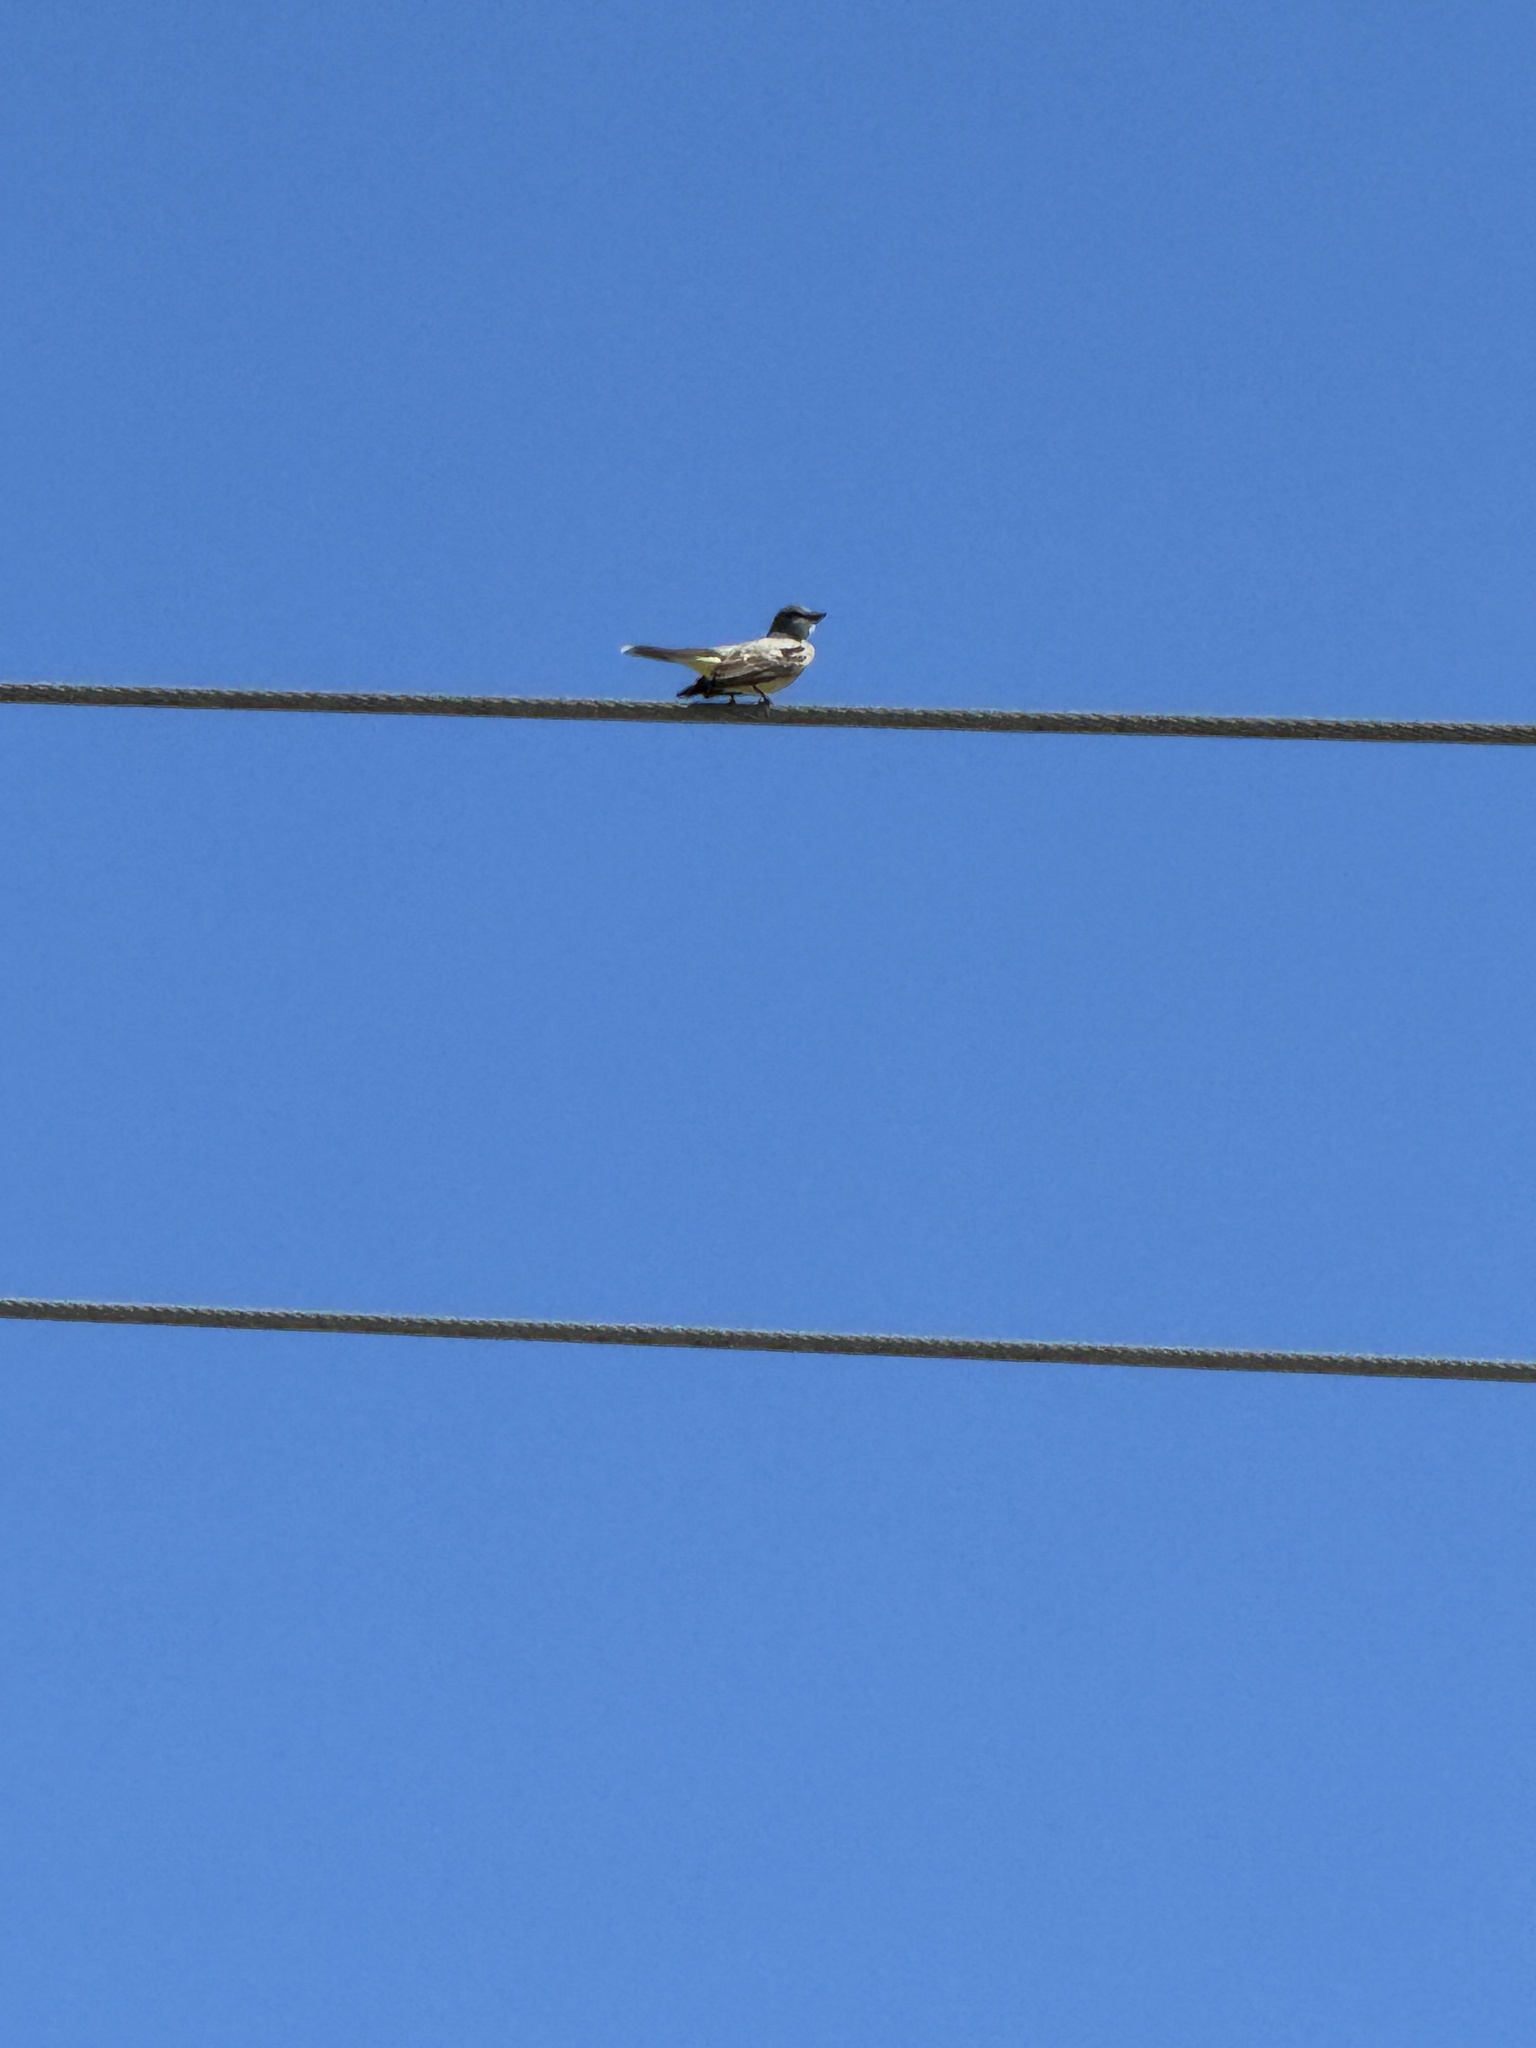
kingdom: Animalia
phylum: Chordata
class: Aves
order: Passeriformes
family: Tyrannidae
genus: Tyrannus
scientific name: Tyrannus vociferans
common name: Cassin's kingbird
